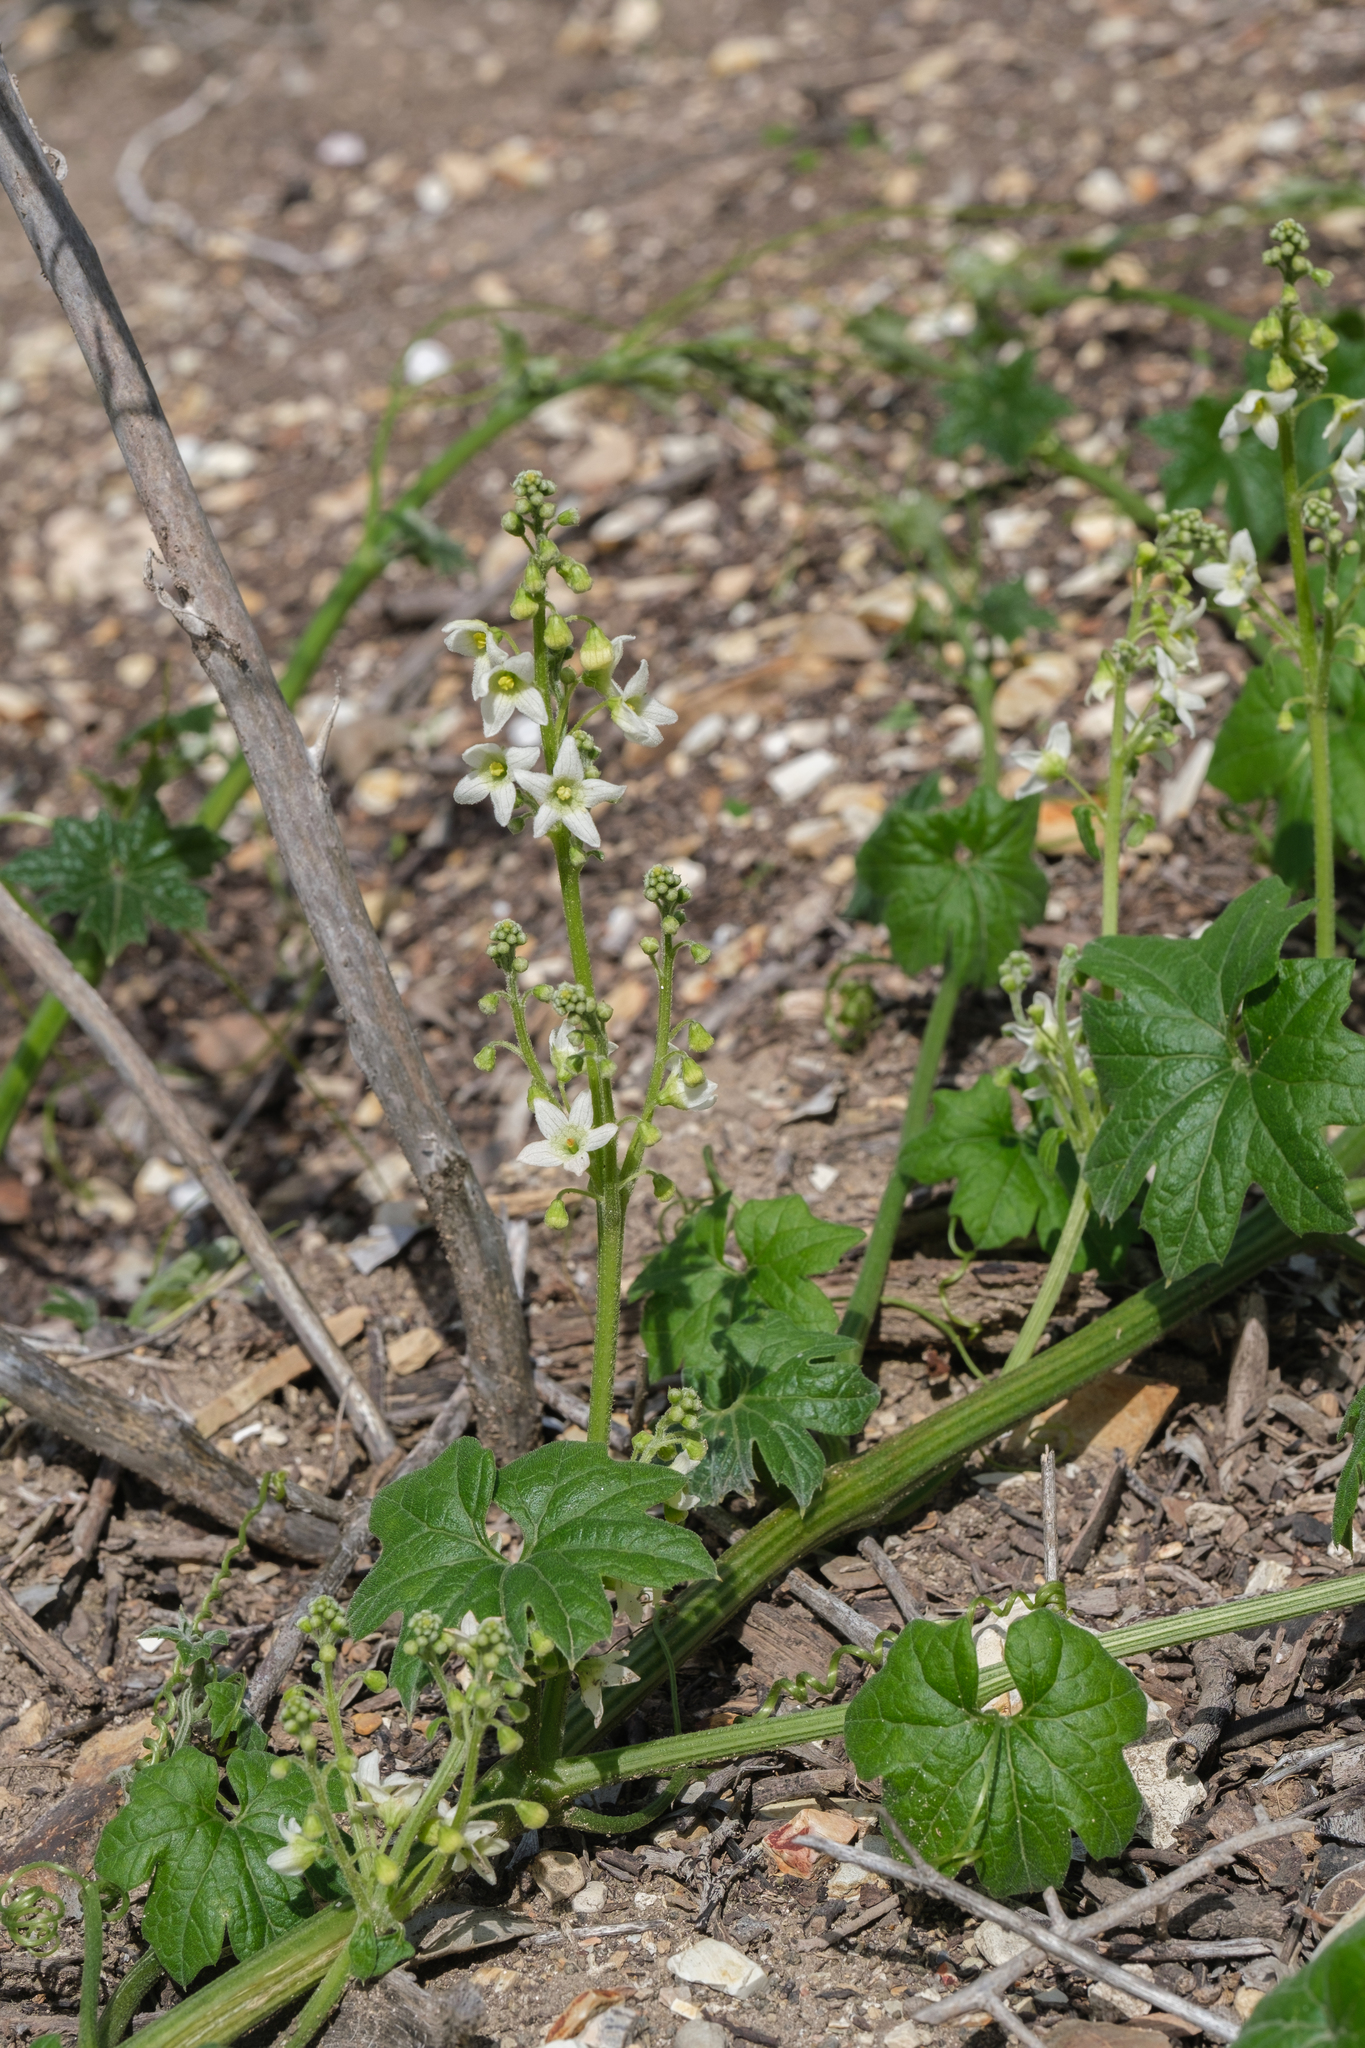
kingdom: Plantae
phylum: Tracheophyta
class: Magnoliopsida
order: Cucurbitales
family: Cucurbitaceae
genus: Marah
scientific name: Marah macrocarpa
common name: Cucamonga manroot
